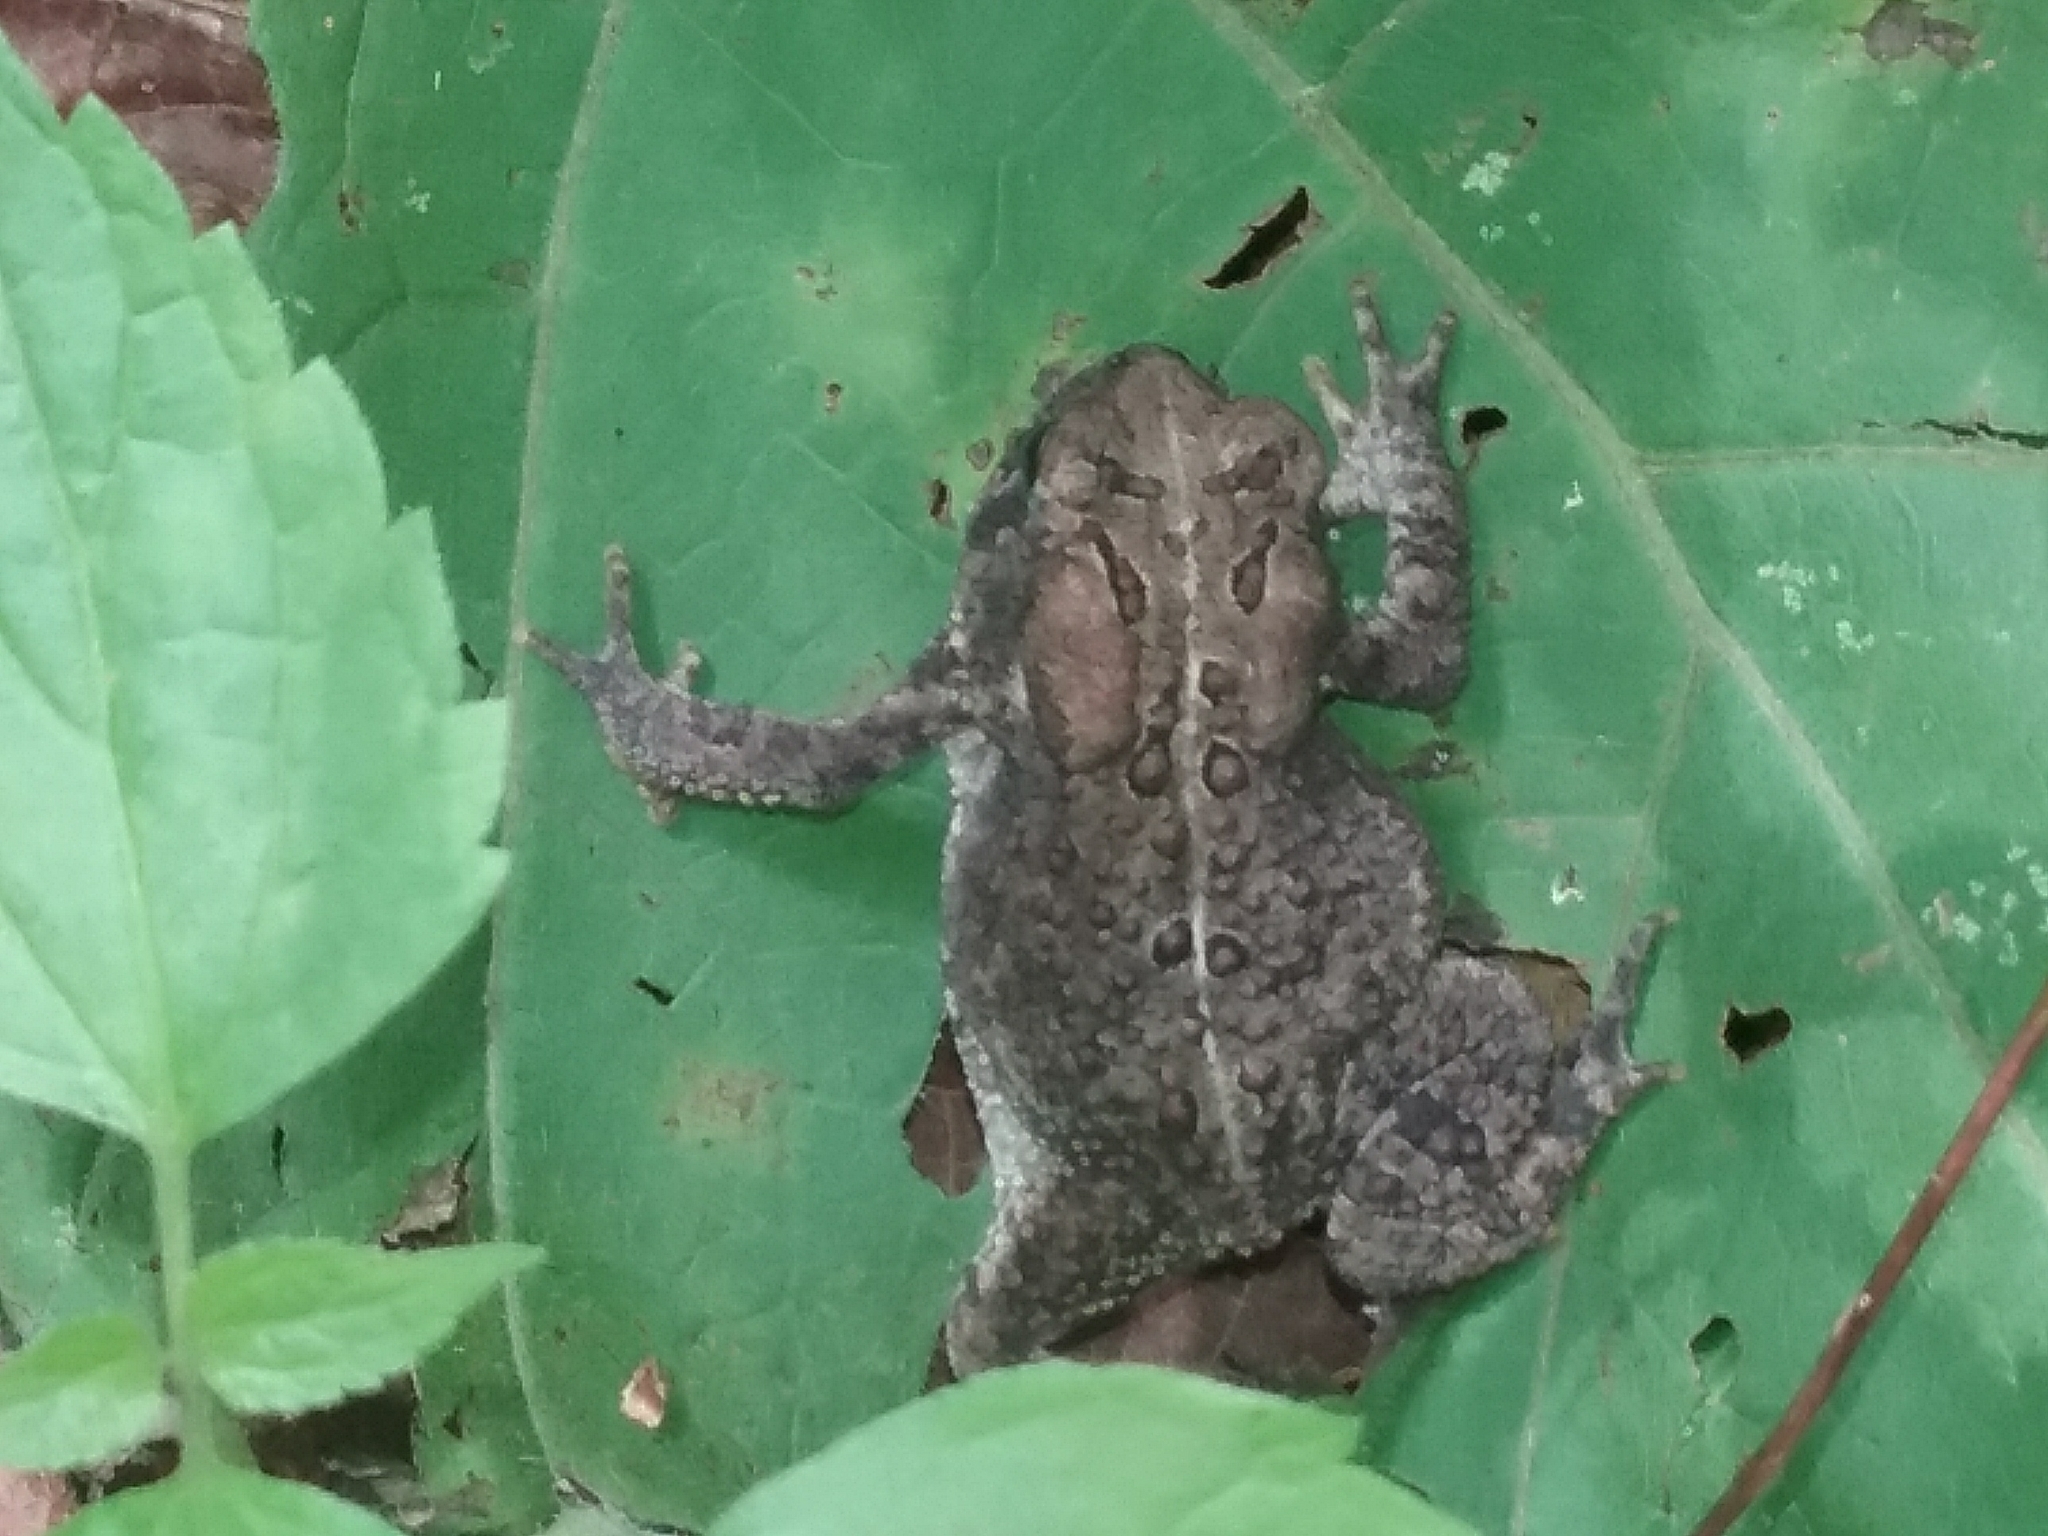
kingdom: Animalia
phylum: Chordata
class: Amphibia
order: Anura
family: Bufonidae
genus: Anaxyrus
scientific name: Anaxyrus americanus
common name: American toad
